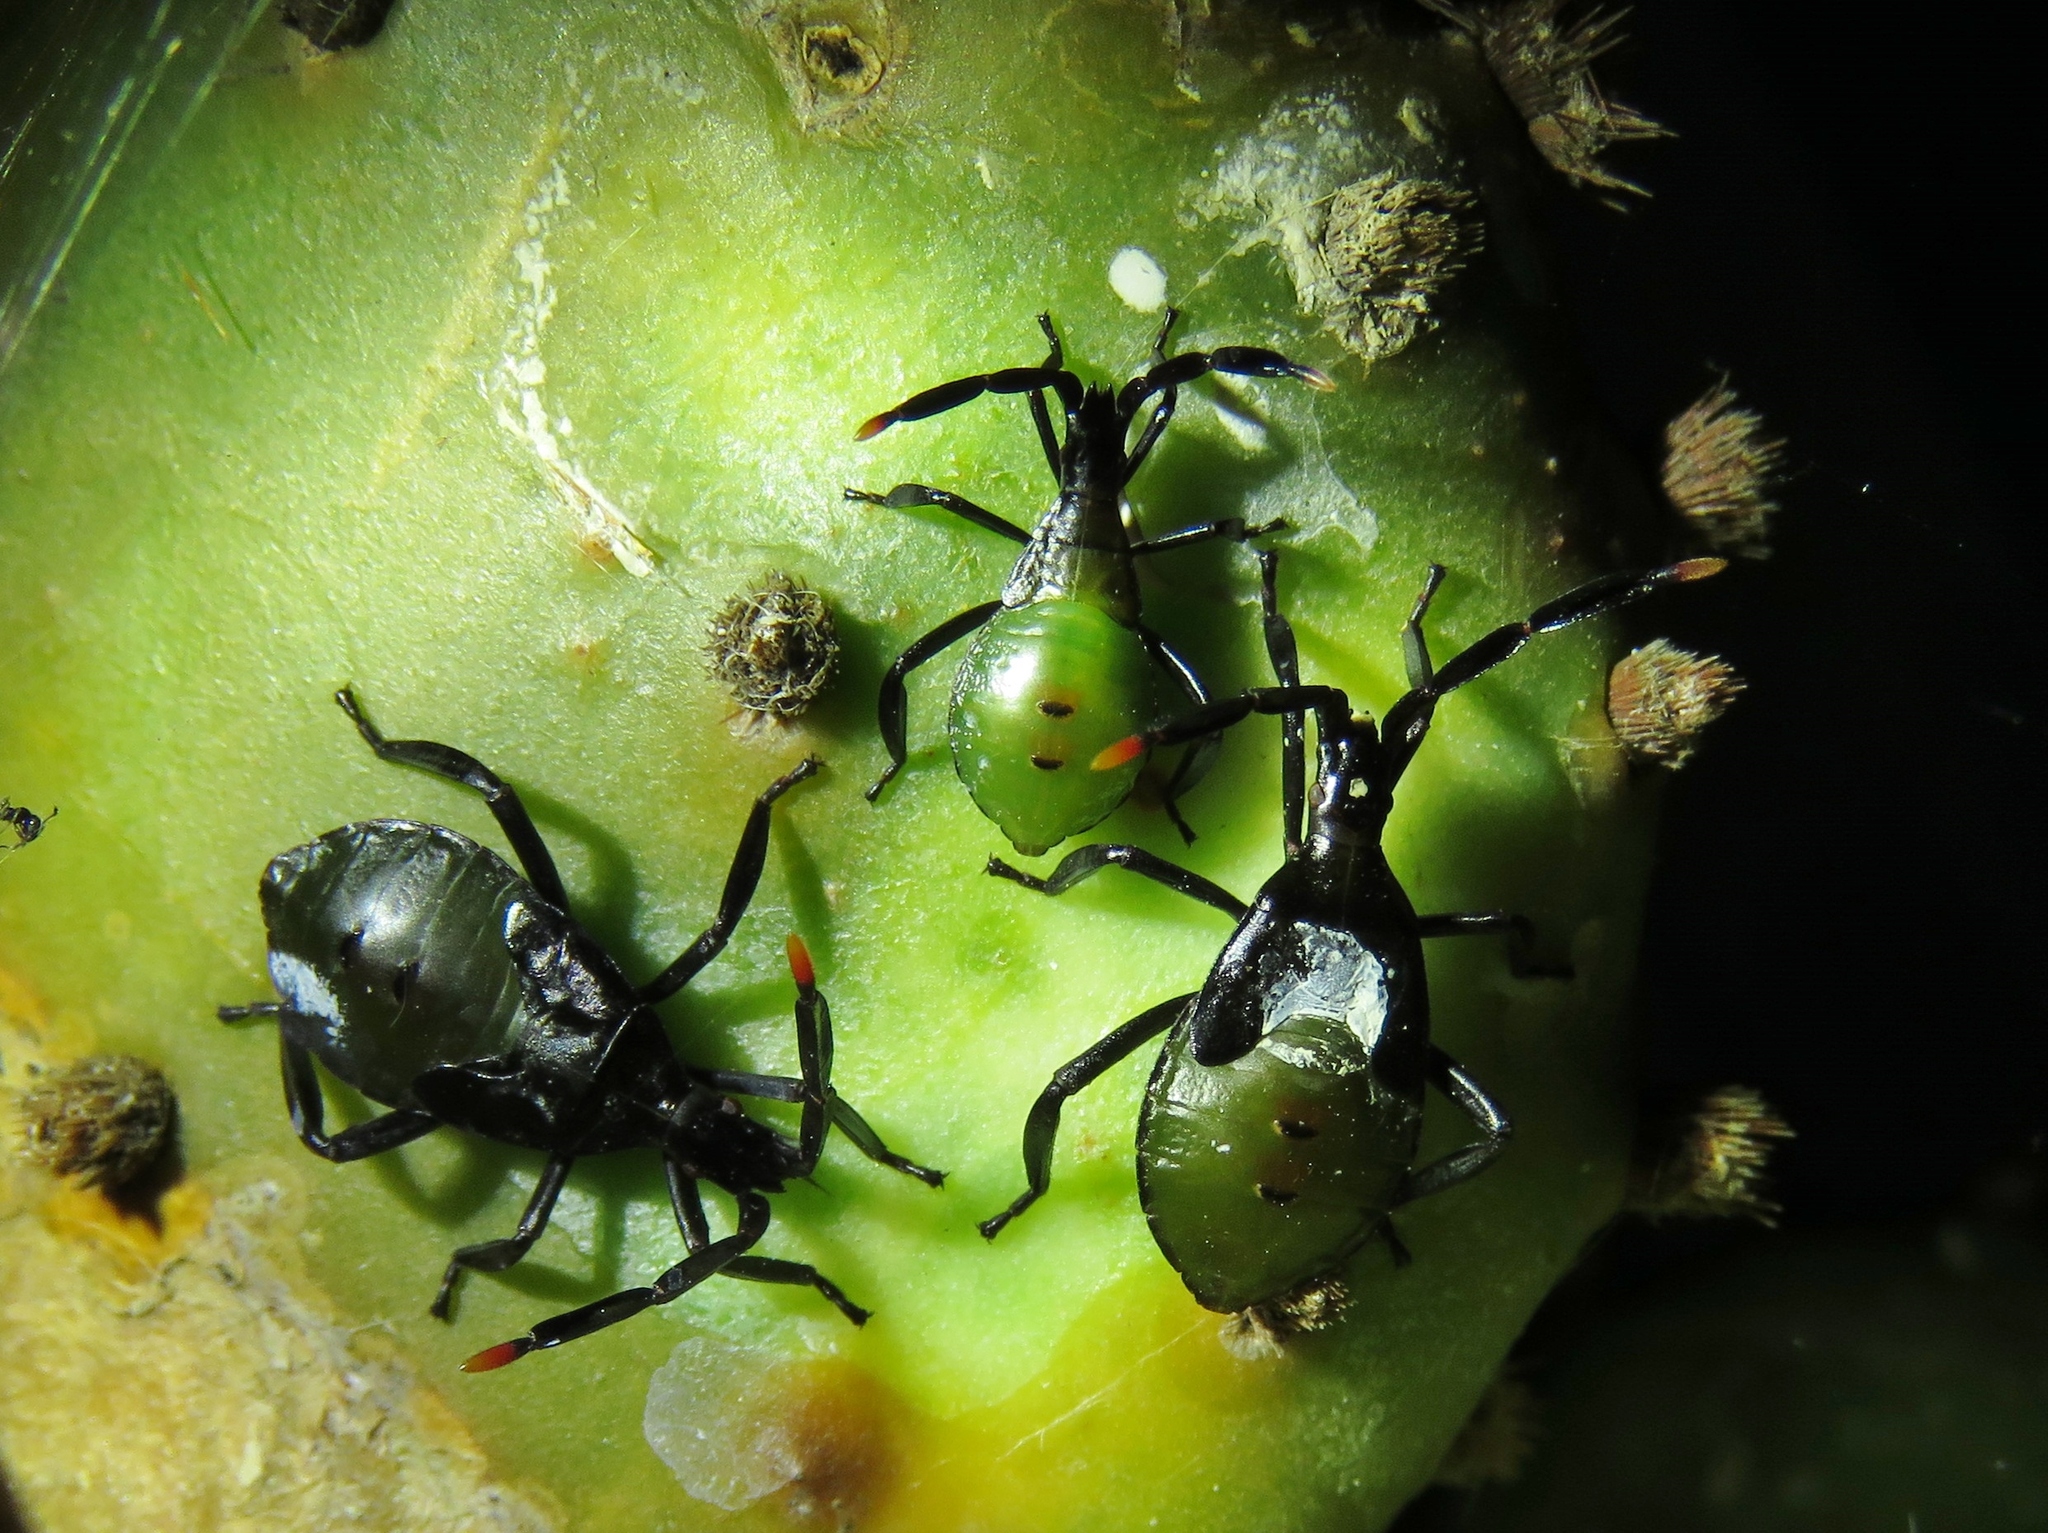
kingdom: Animalia
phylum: Arthropoda
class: Insecta
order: Hemiptera
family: Coreidae
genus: Chelinidea
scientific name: Chelinidea vittiger
